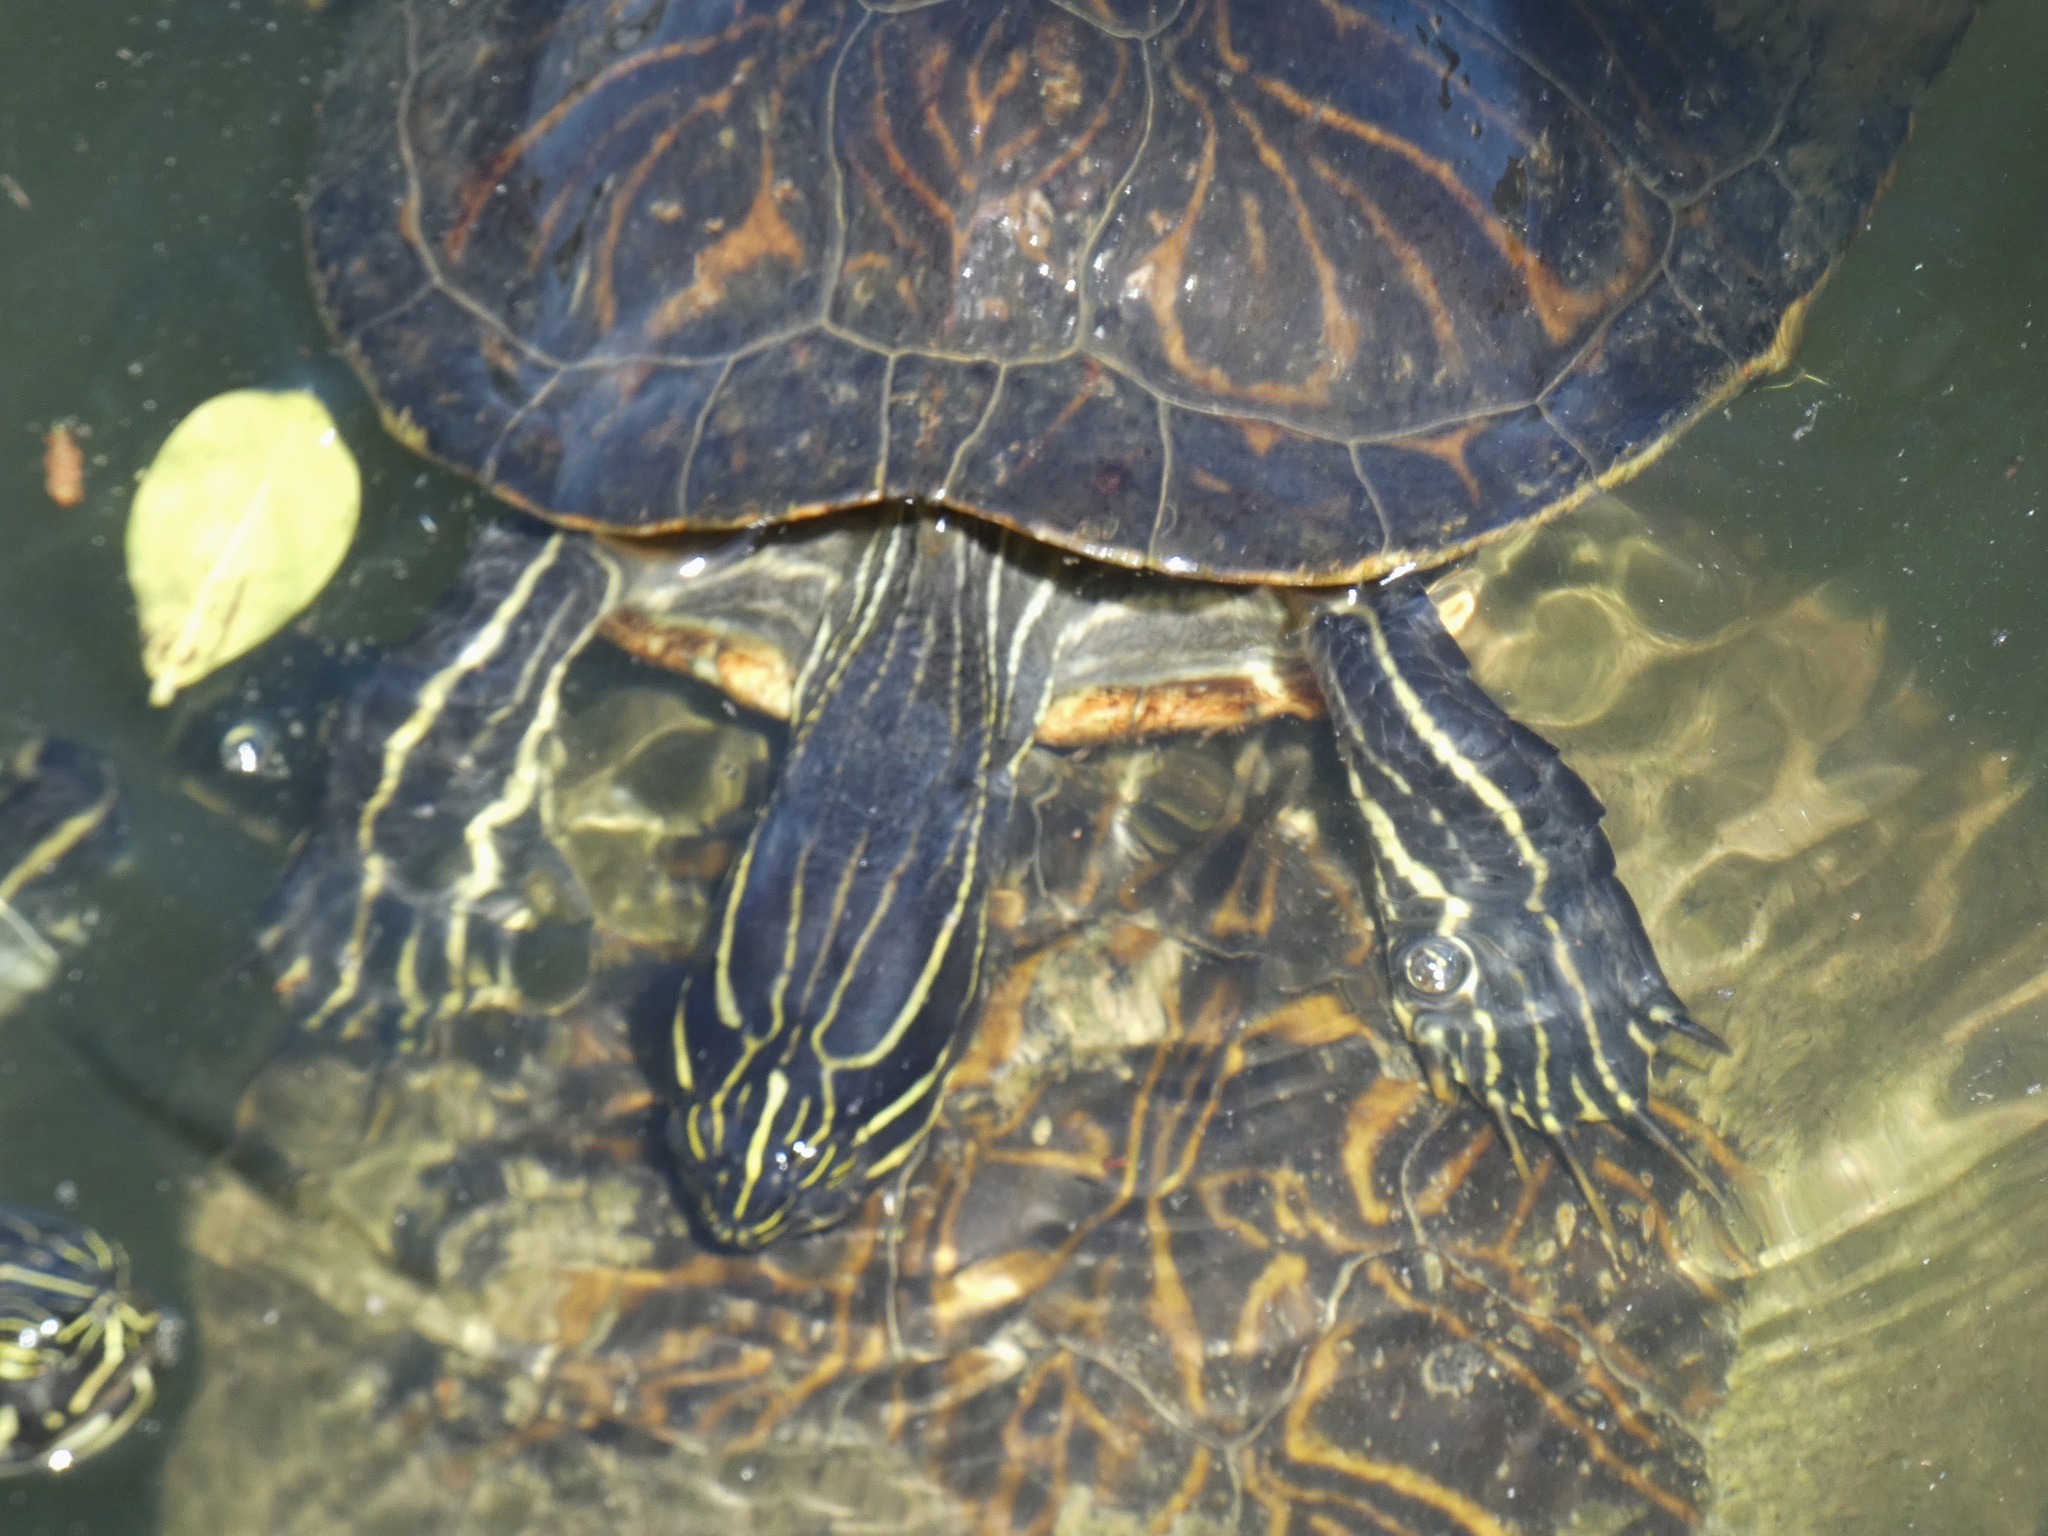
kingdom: Animalia
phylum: Chordata
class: Testudines
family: Emydidae
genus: Pseudemys
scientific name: Pseudemys peninsularis
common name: Peninsula cooter
